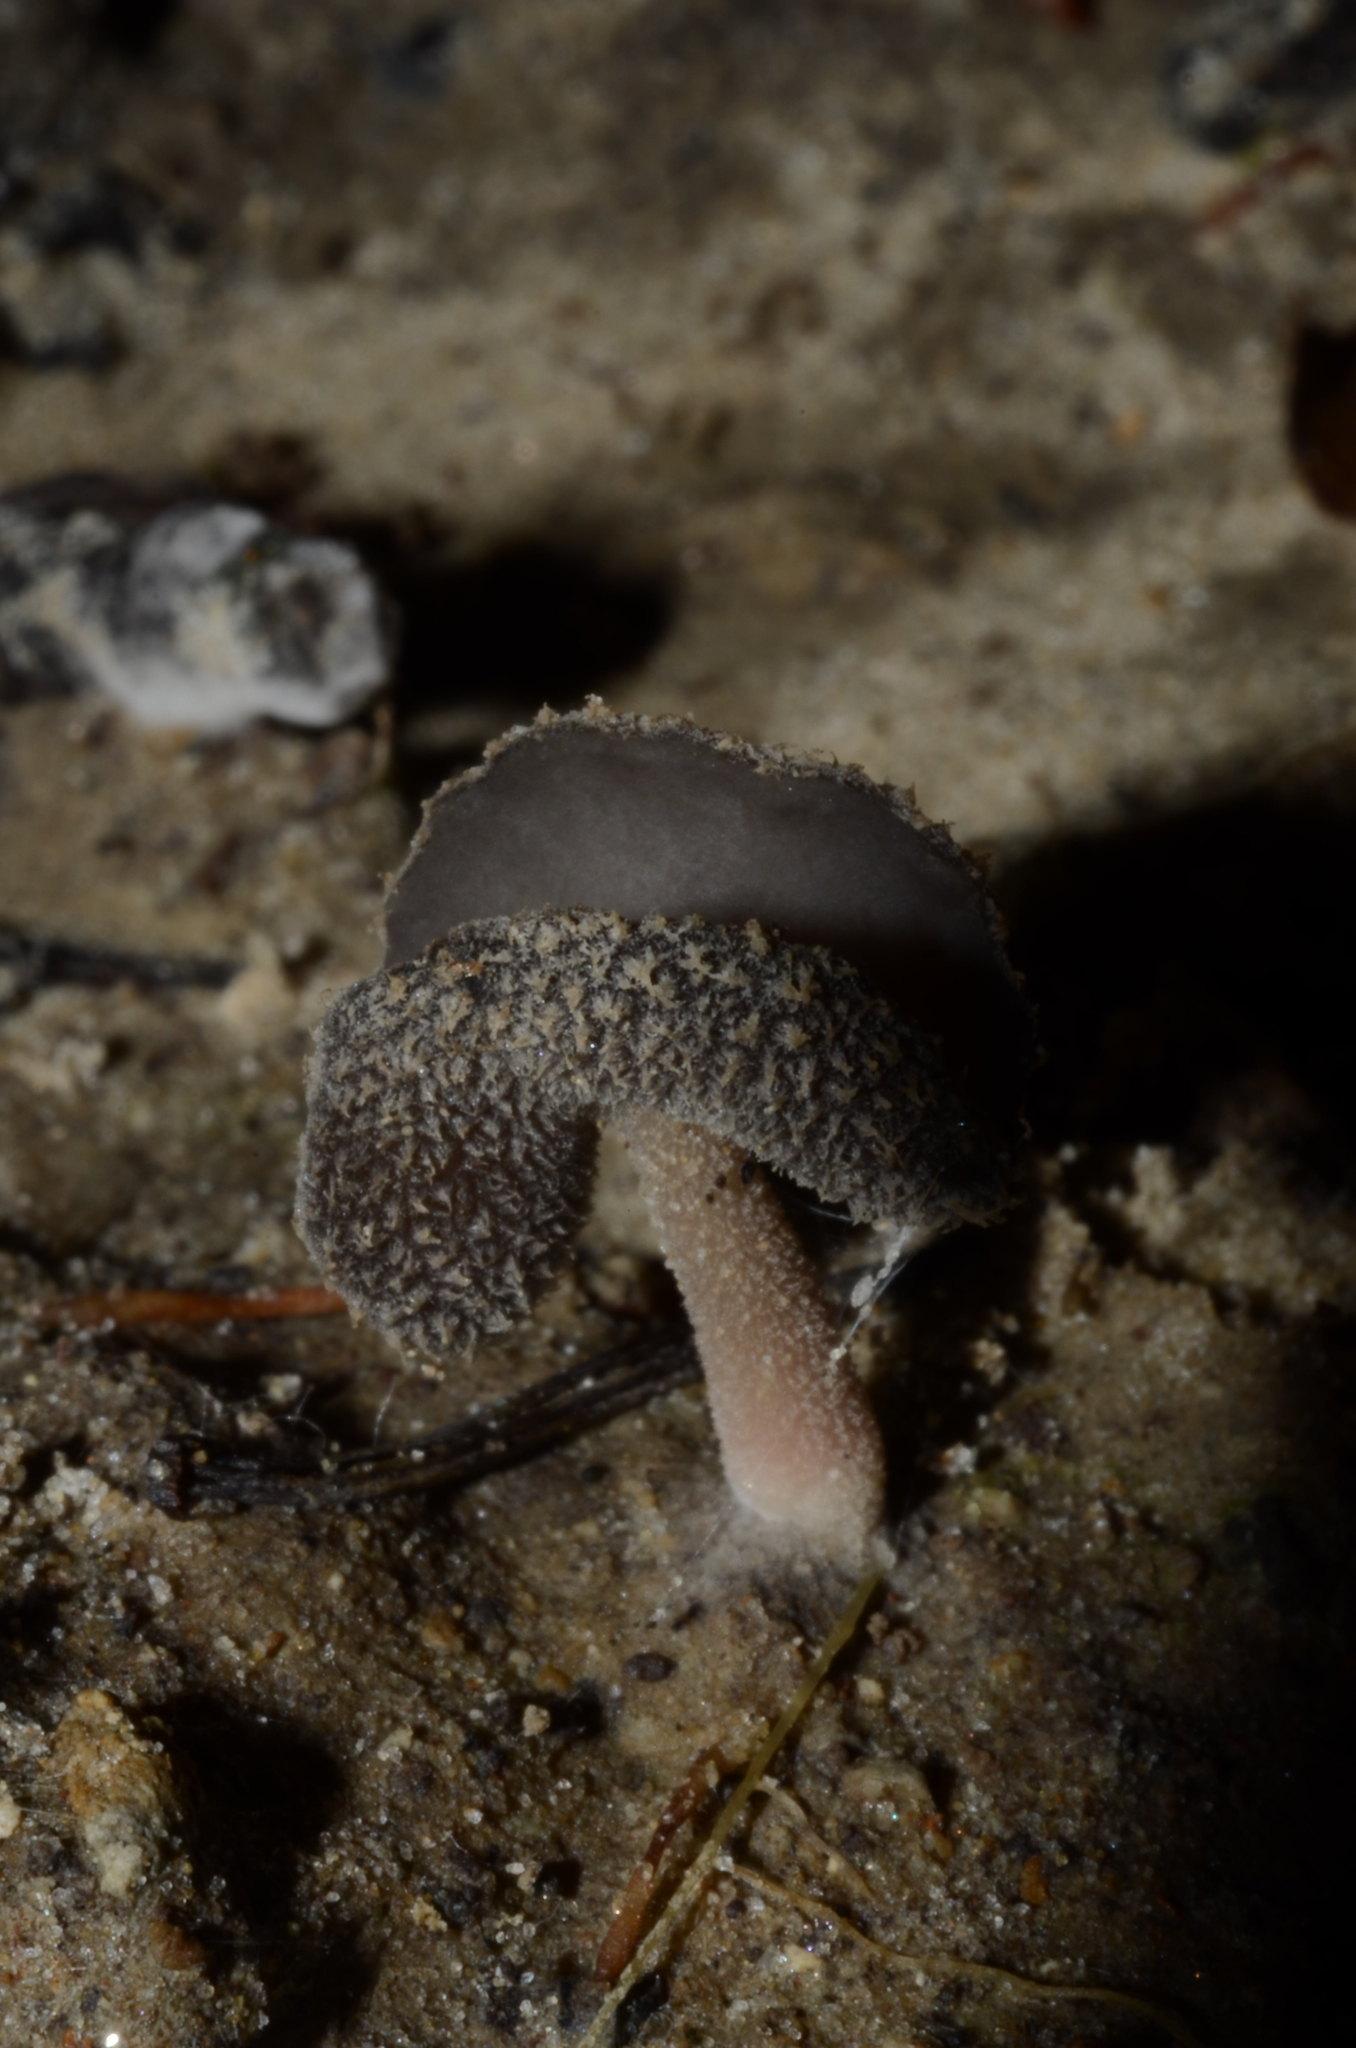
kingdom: Fungi
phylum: Ascomycota
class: Pezizomycetes
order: Pezizales
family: Helvellaceae
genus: Helvella
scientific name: Helvella ephippium
